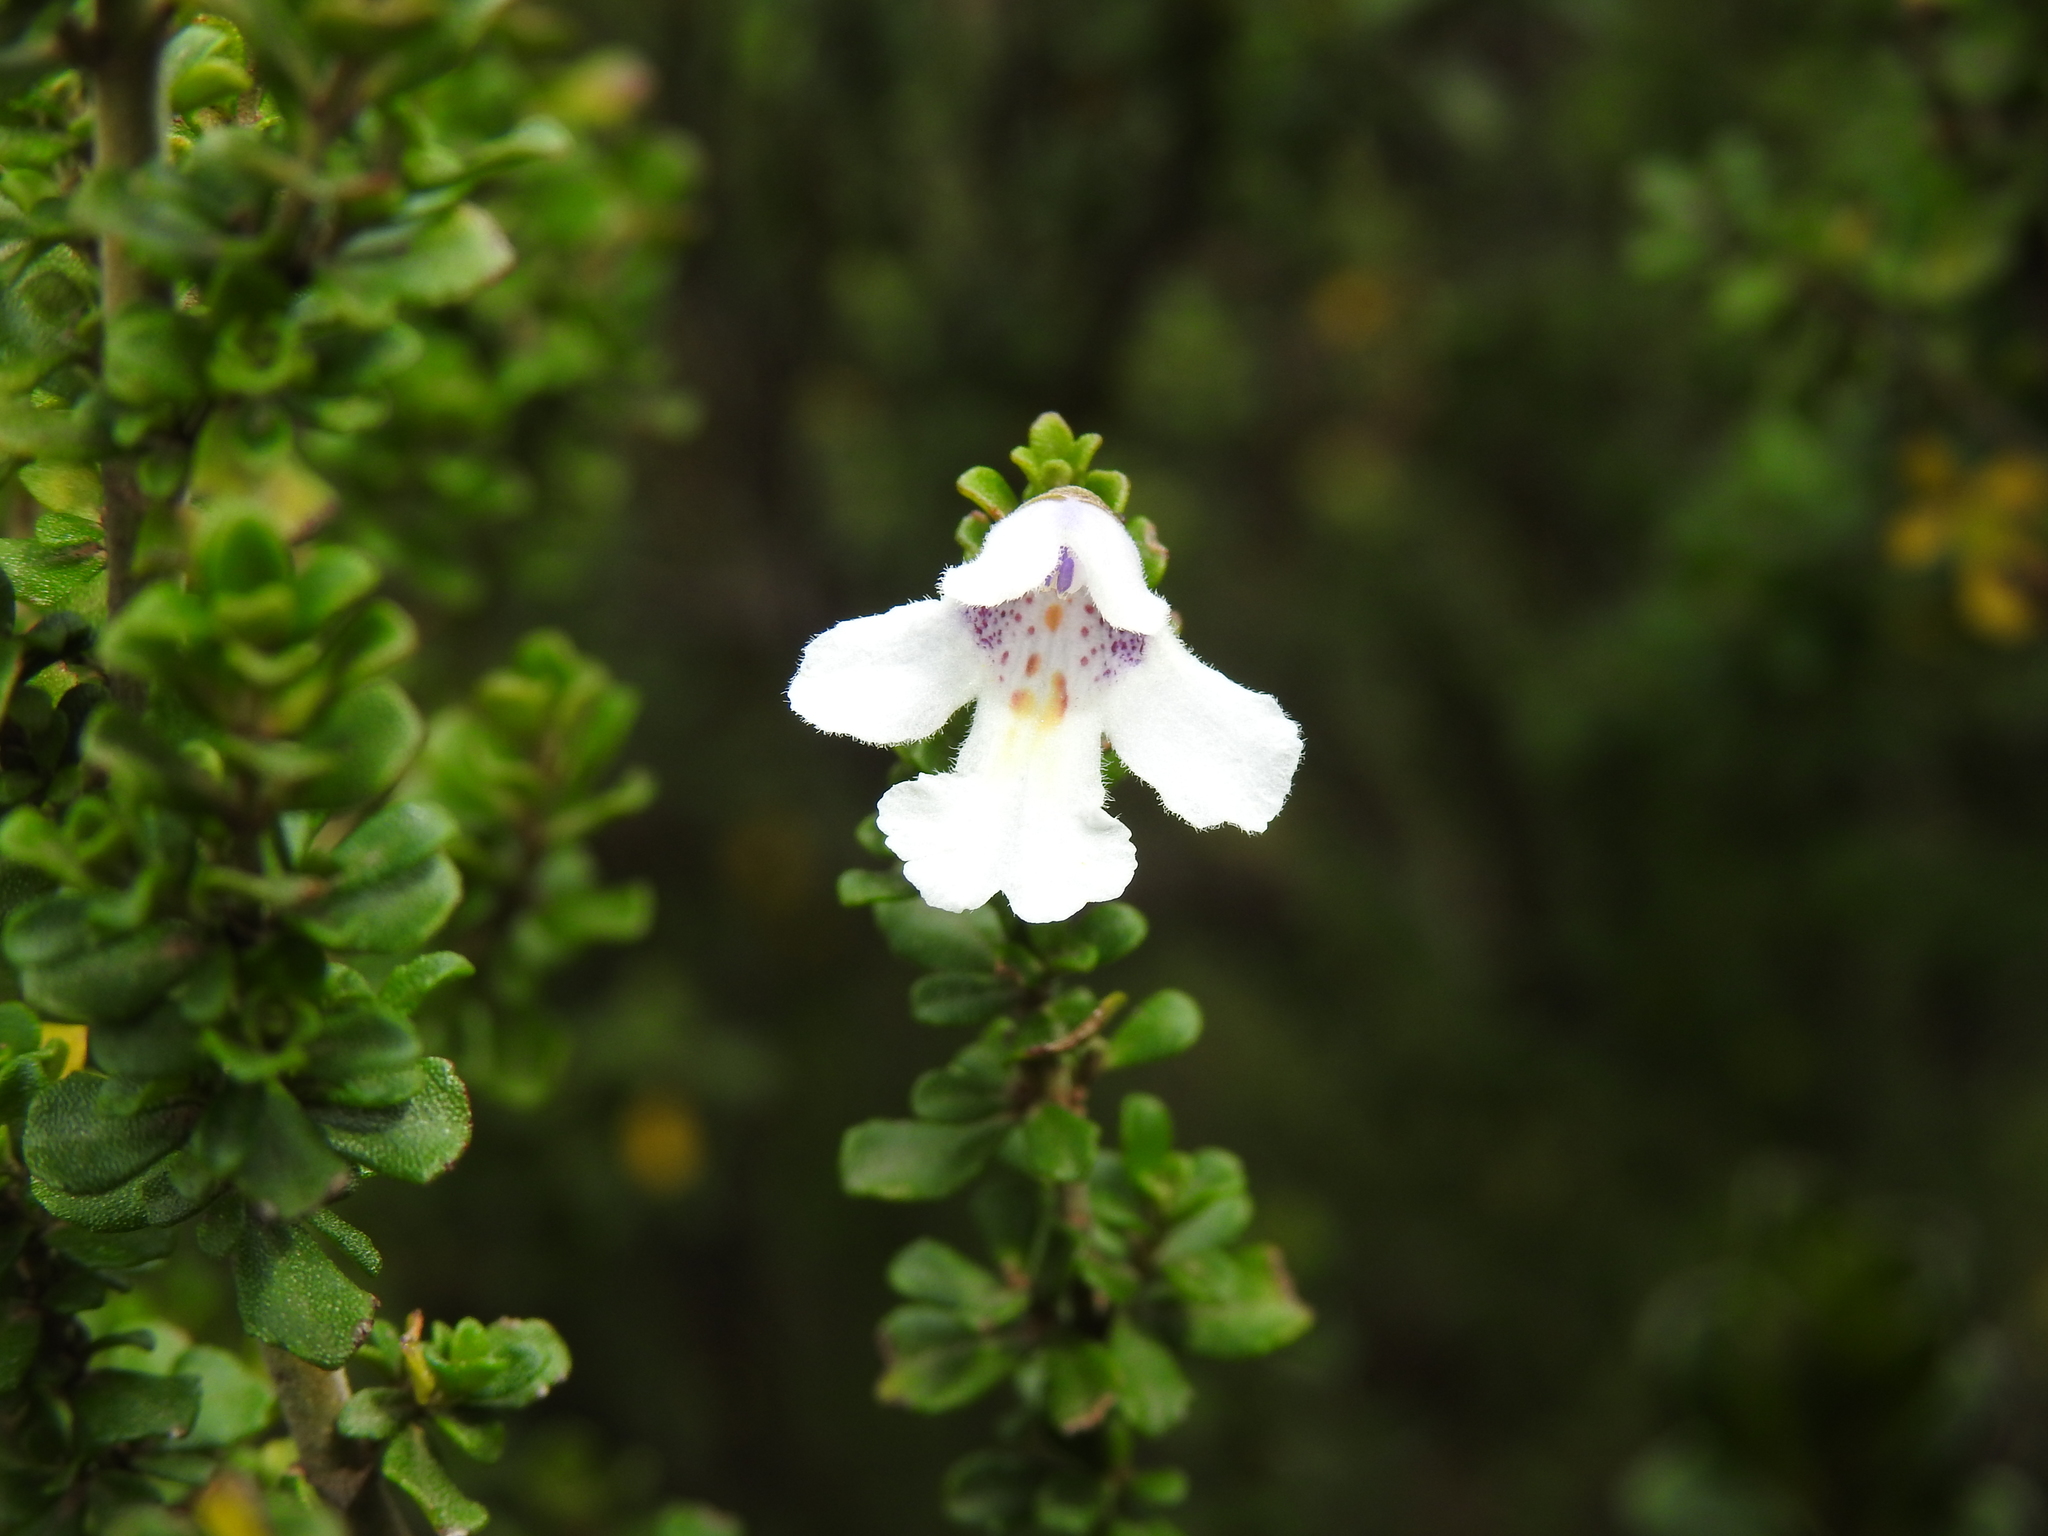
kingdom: Plantae
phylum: Tracheophyta
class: Magnoliopsida
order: Lamiales
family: Lamiaceae
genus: Prostanthera
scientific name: Prostanthera cuneata
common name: Alpine mintbush
